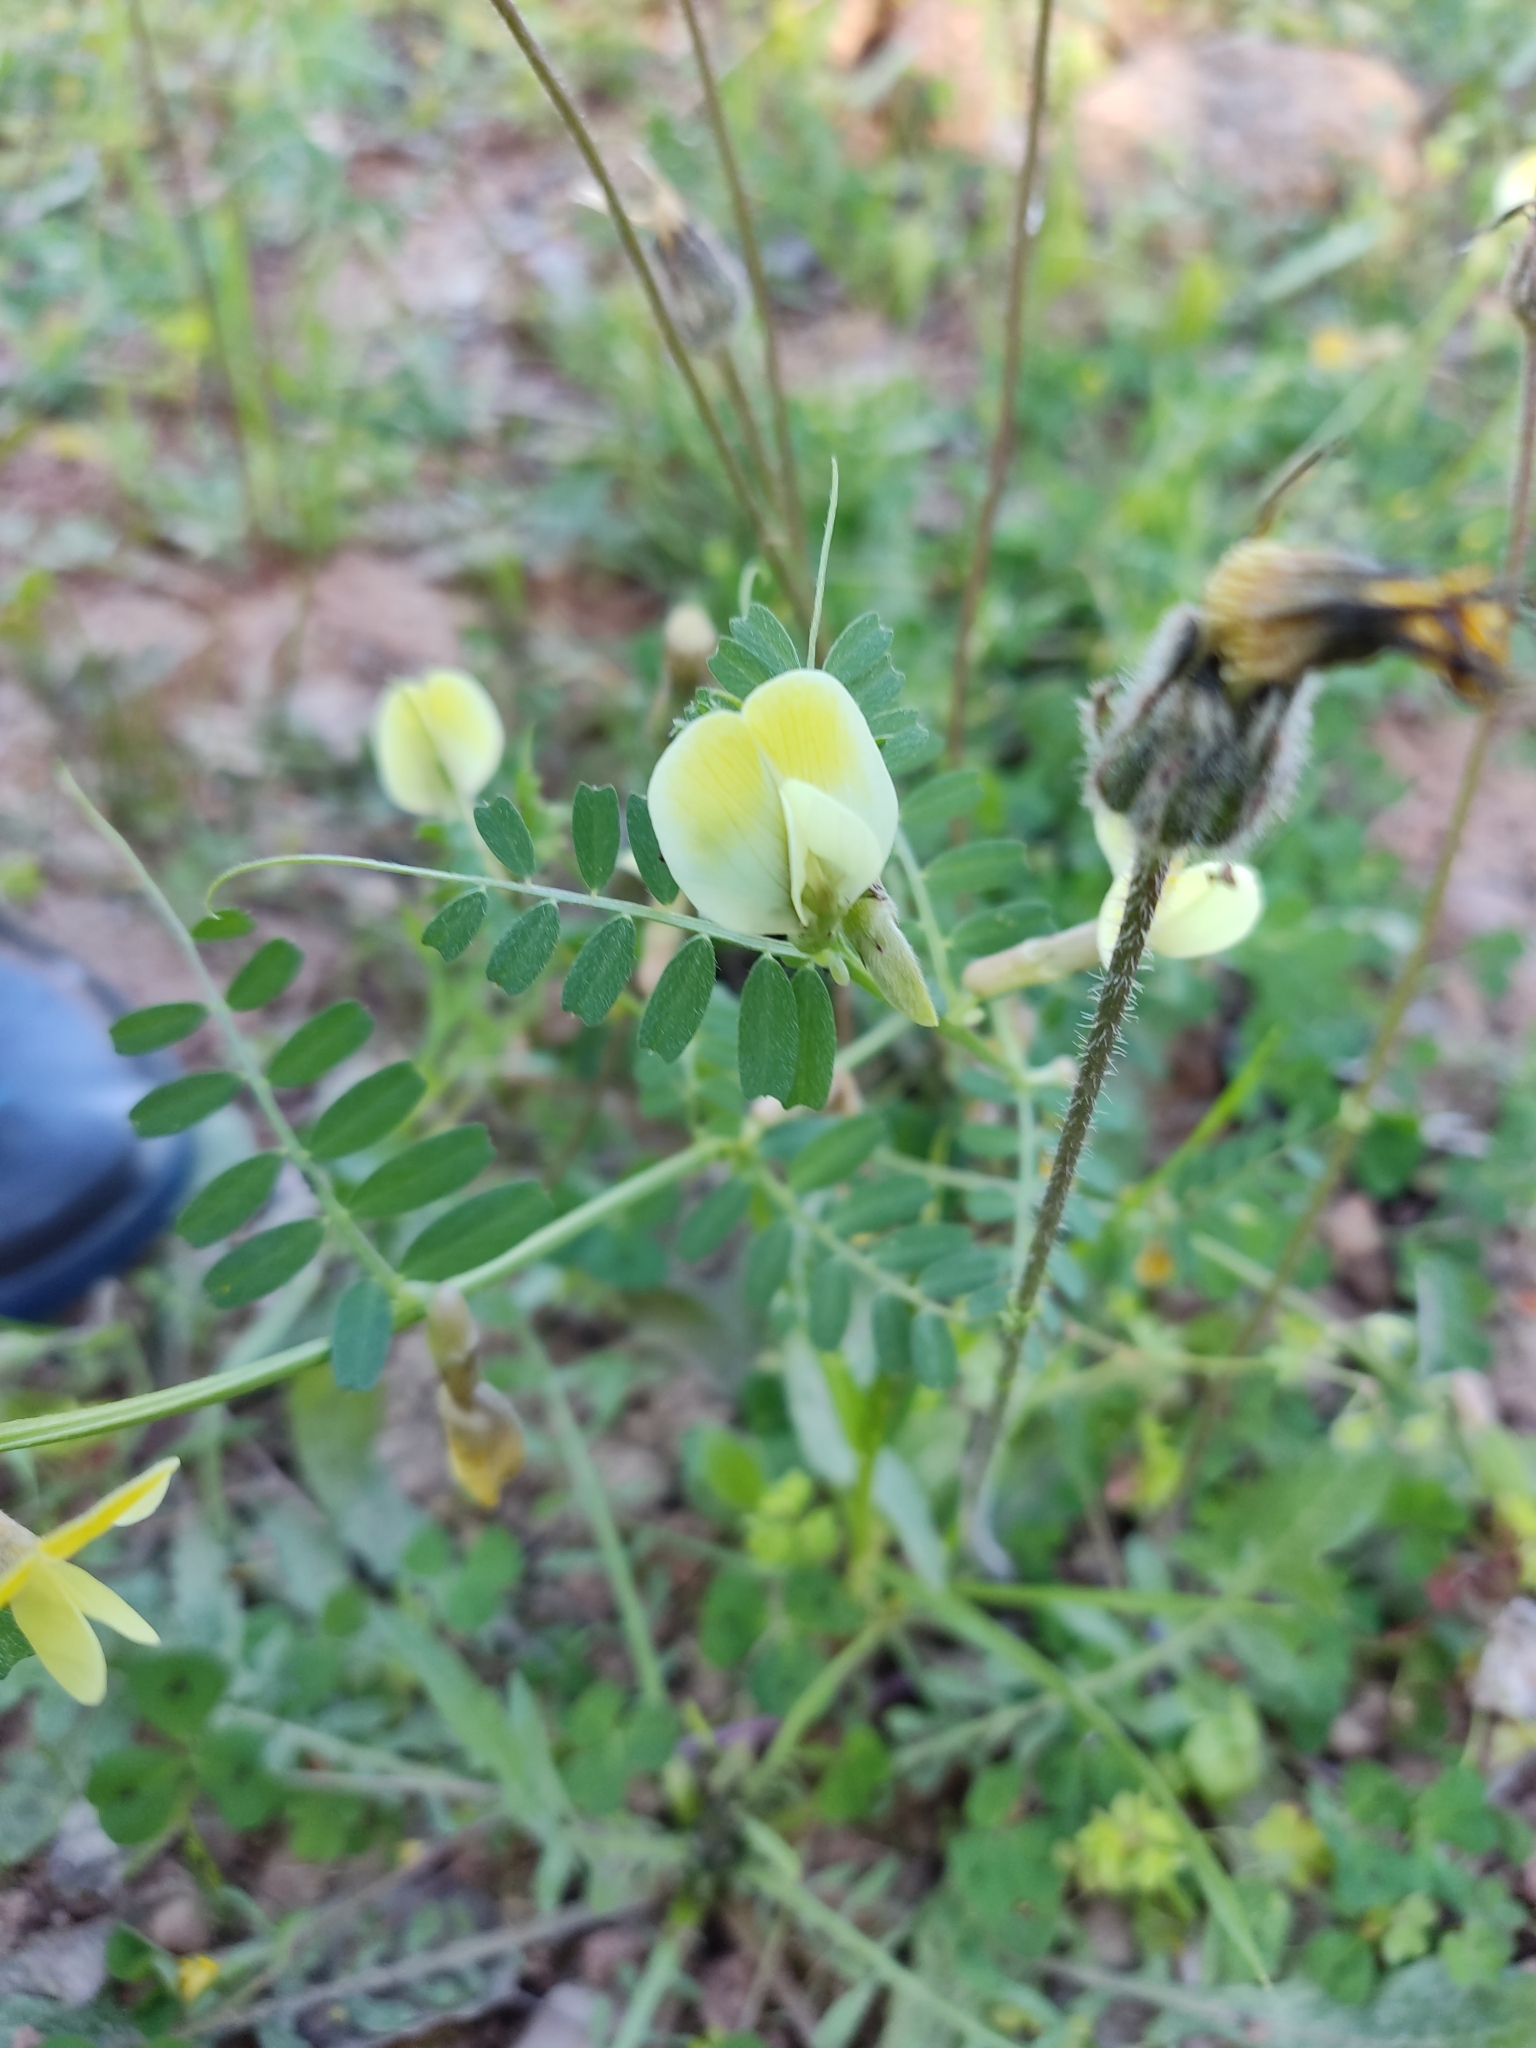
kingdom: Plantae
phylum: Tracheophyta
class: Magnoliopsida
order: Fabales
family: Fabaceae
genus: Vicia
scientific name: Vicia hybrida
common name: Hairy yellow vetch
